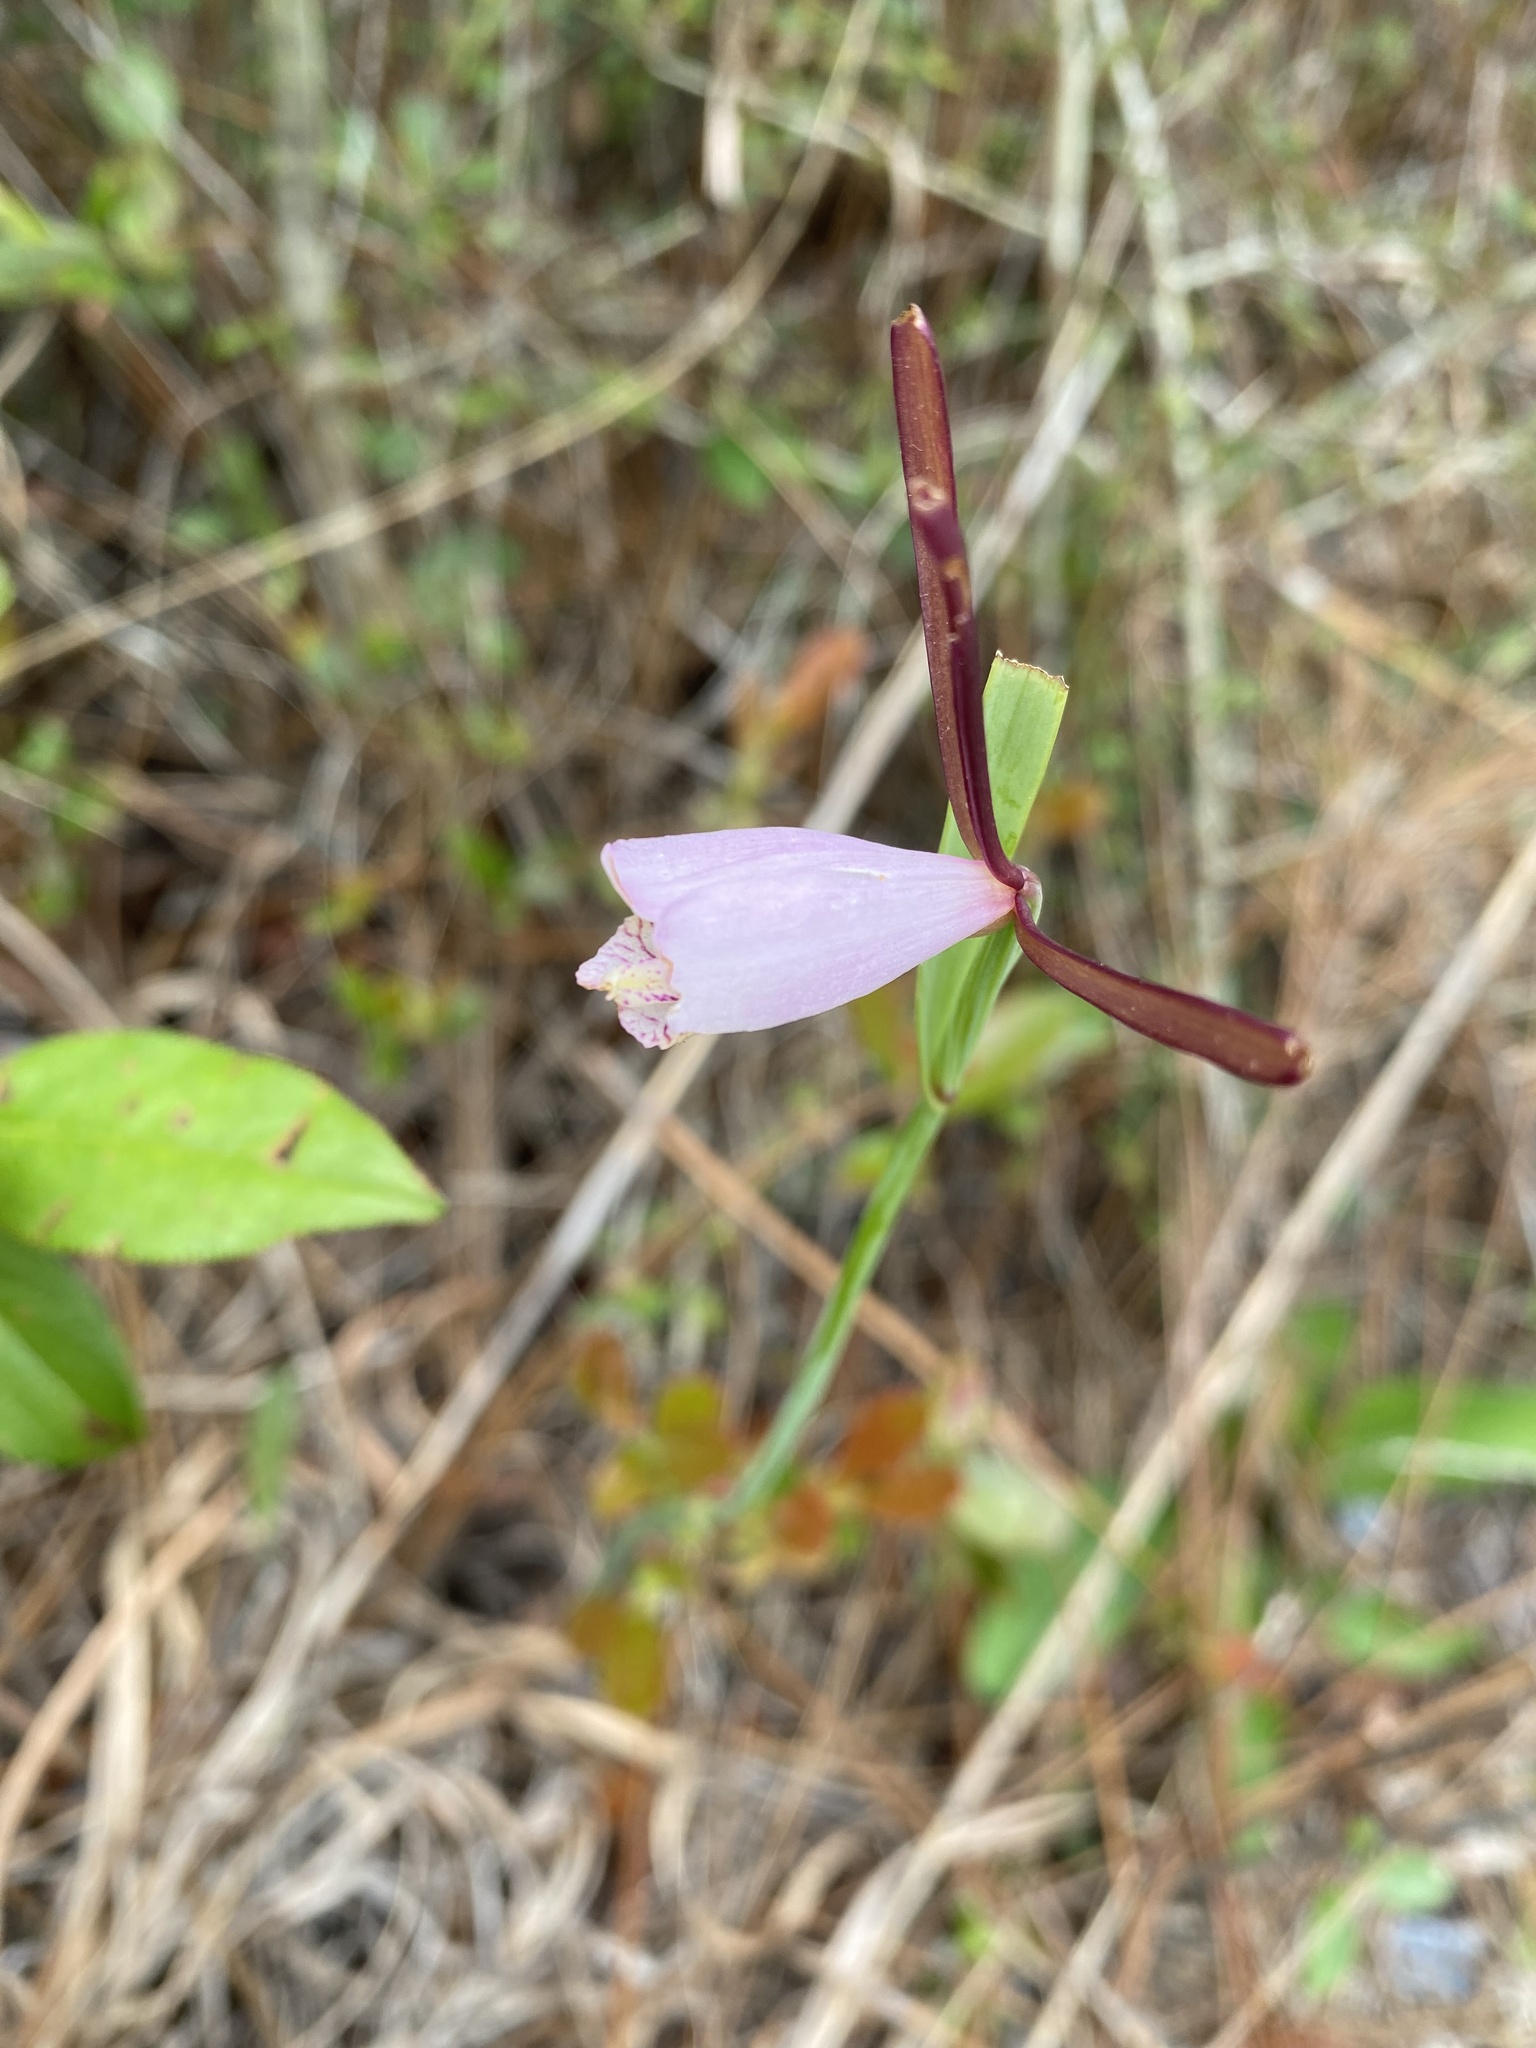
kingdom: Plantae
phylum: Tracheophyta
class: Liliopsida
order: Asparagales
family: Orchidaceae
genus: Cleistesiopsis
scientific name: Cleistesiopsis oricamporum
